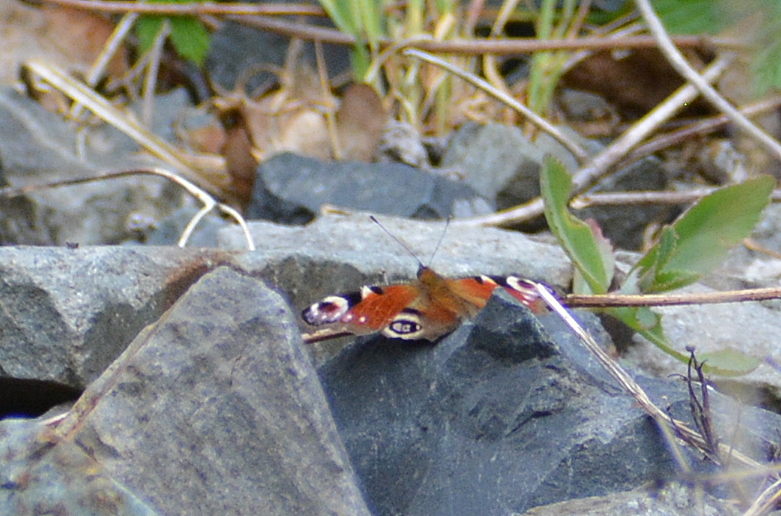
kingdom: Animalia
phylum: Arthropoda
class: Insecta
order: Lepidoptera
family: Nymphalidae
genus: Aglais
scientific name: Aglais io
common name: Peacock
